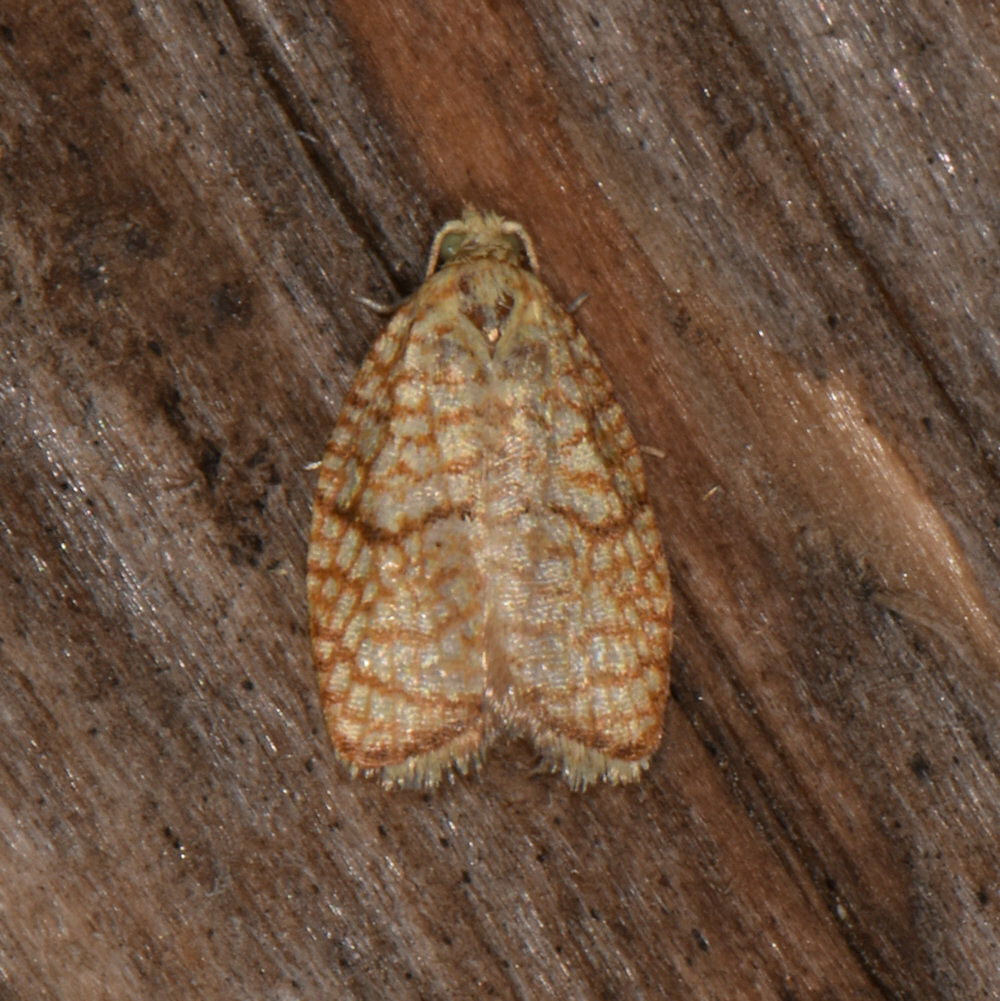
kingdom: Animalia
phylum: Arthropoda
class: Insecta
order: Lepidoptera
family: Tortricidae
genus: Acleris
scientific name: Acleris forsskaleana
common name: Maple button
